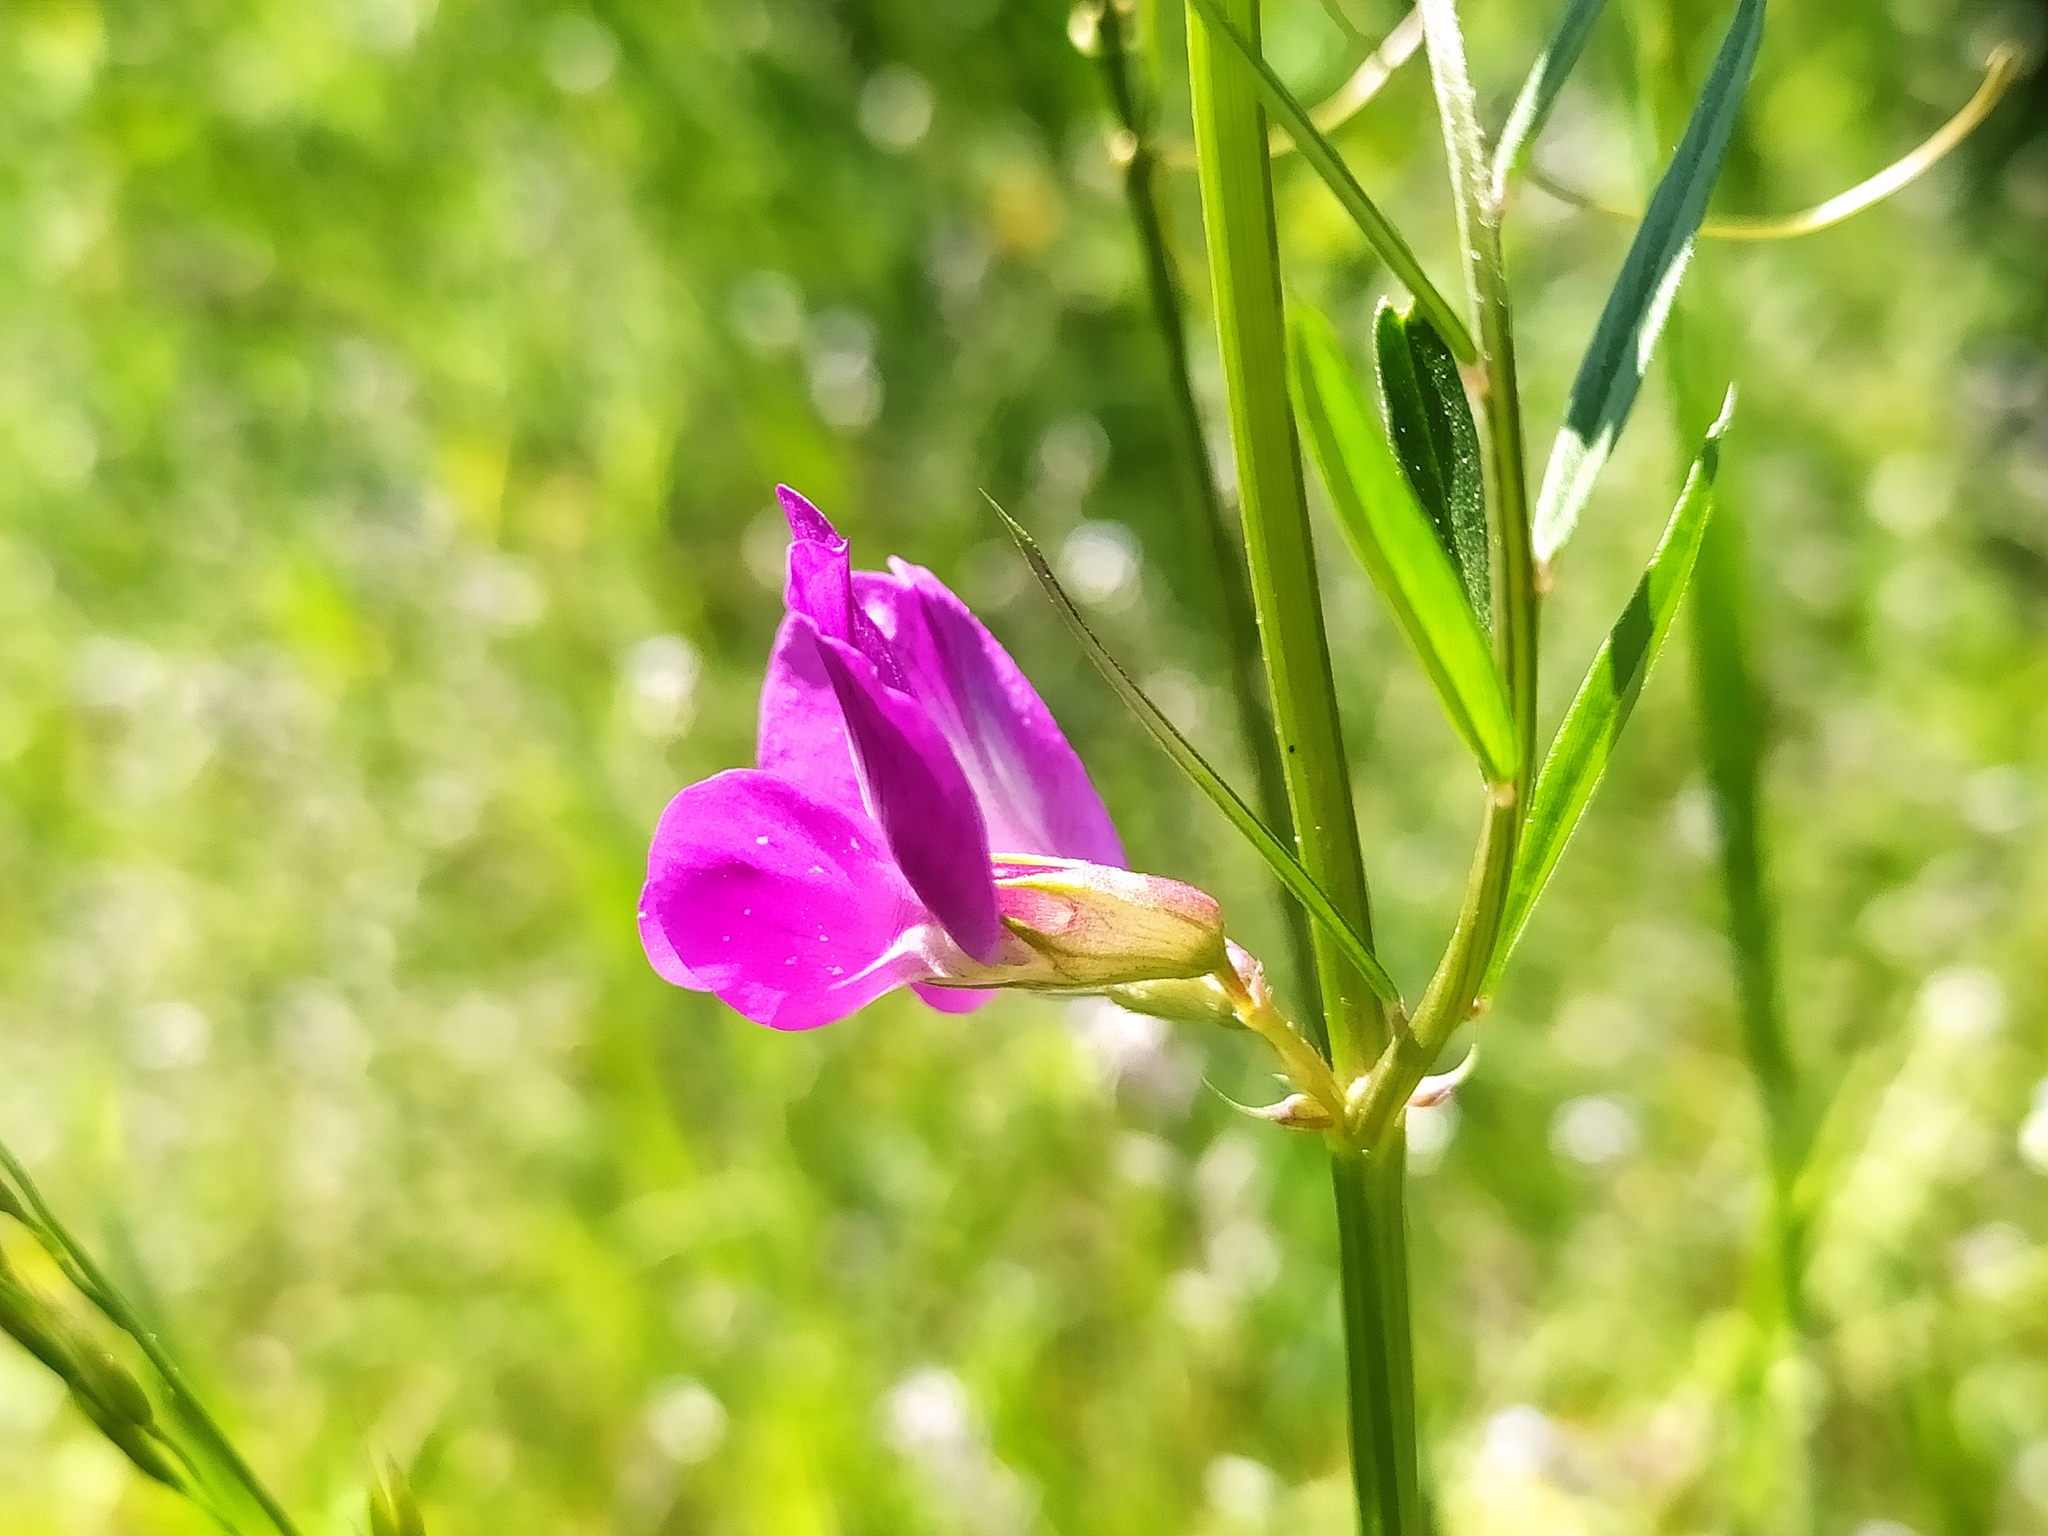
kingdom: Plantae
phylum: Tracheophyta
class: Magnoliopsida
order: Fabales
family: Fabaceae
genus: Vicia
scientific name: Vicia sativa
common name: Garden vetch
